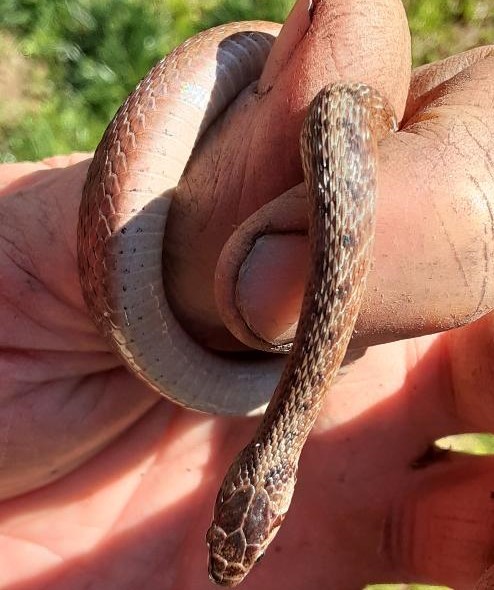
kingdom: Animalia
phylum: Chordata
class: Squamata
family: Colubridae
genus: Storeria
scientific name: Storeria dekayi
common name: (dekay’s) brown snake
